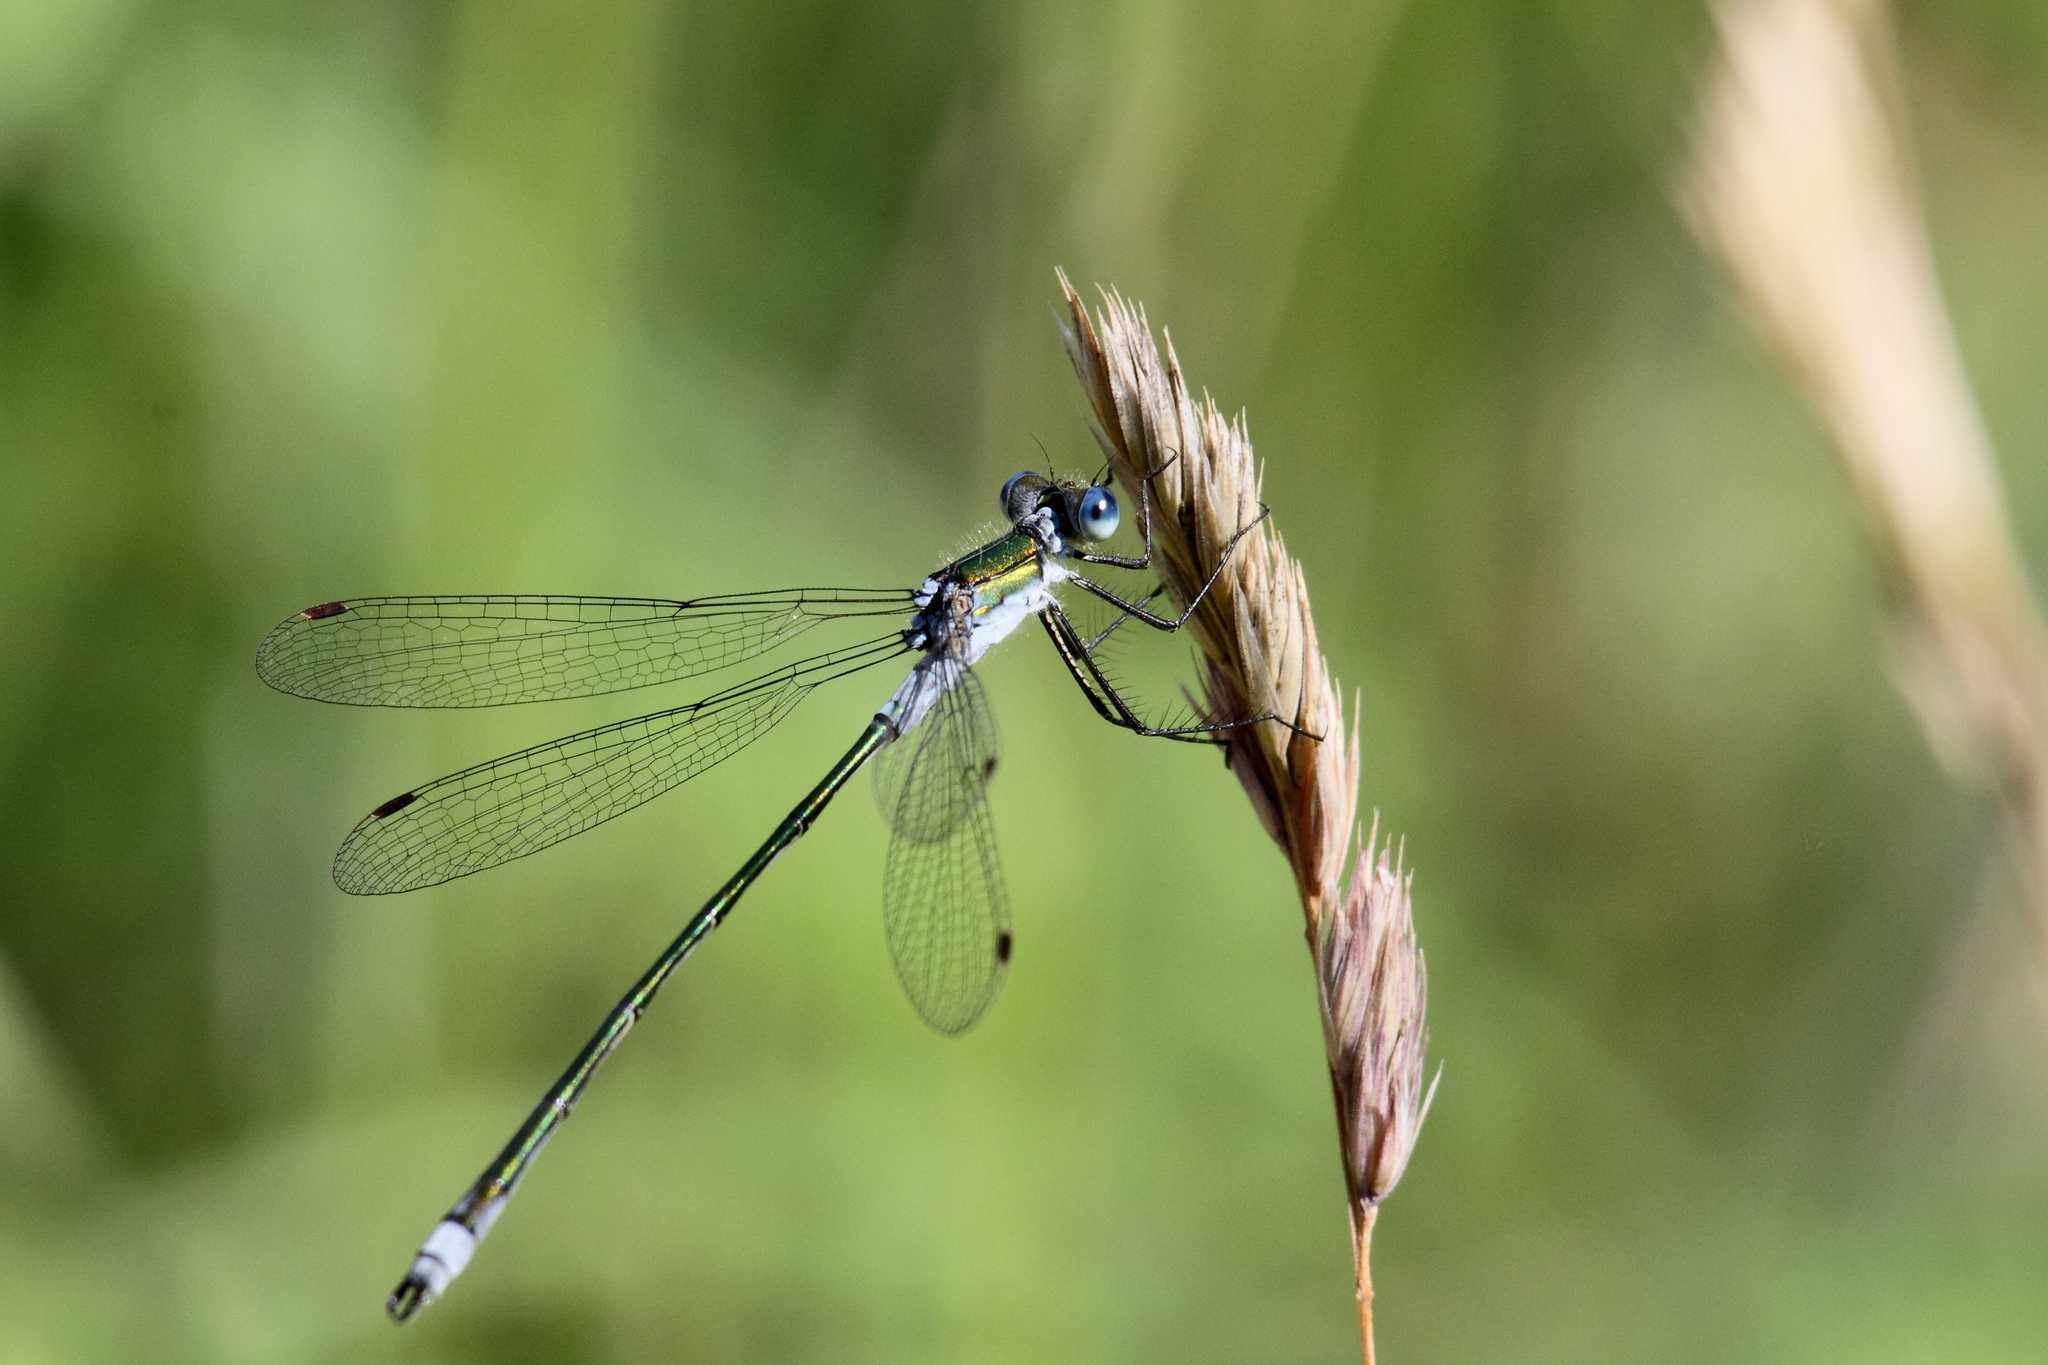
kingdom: Animalia
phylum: Arthropoda
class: Insecta
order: Odonata
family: Lestidae
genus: Lestes
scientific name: Lestes sponsa
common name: Common spreadwing
